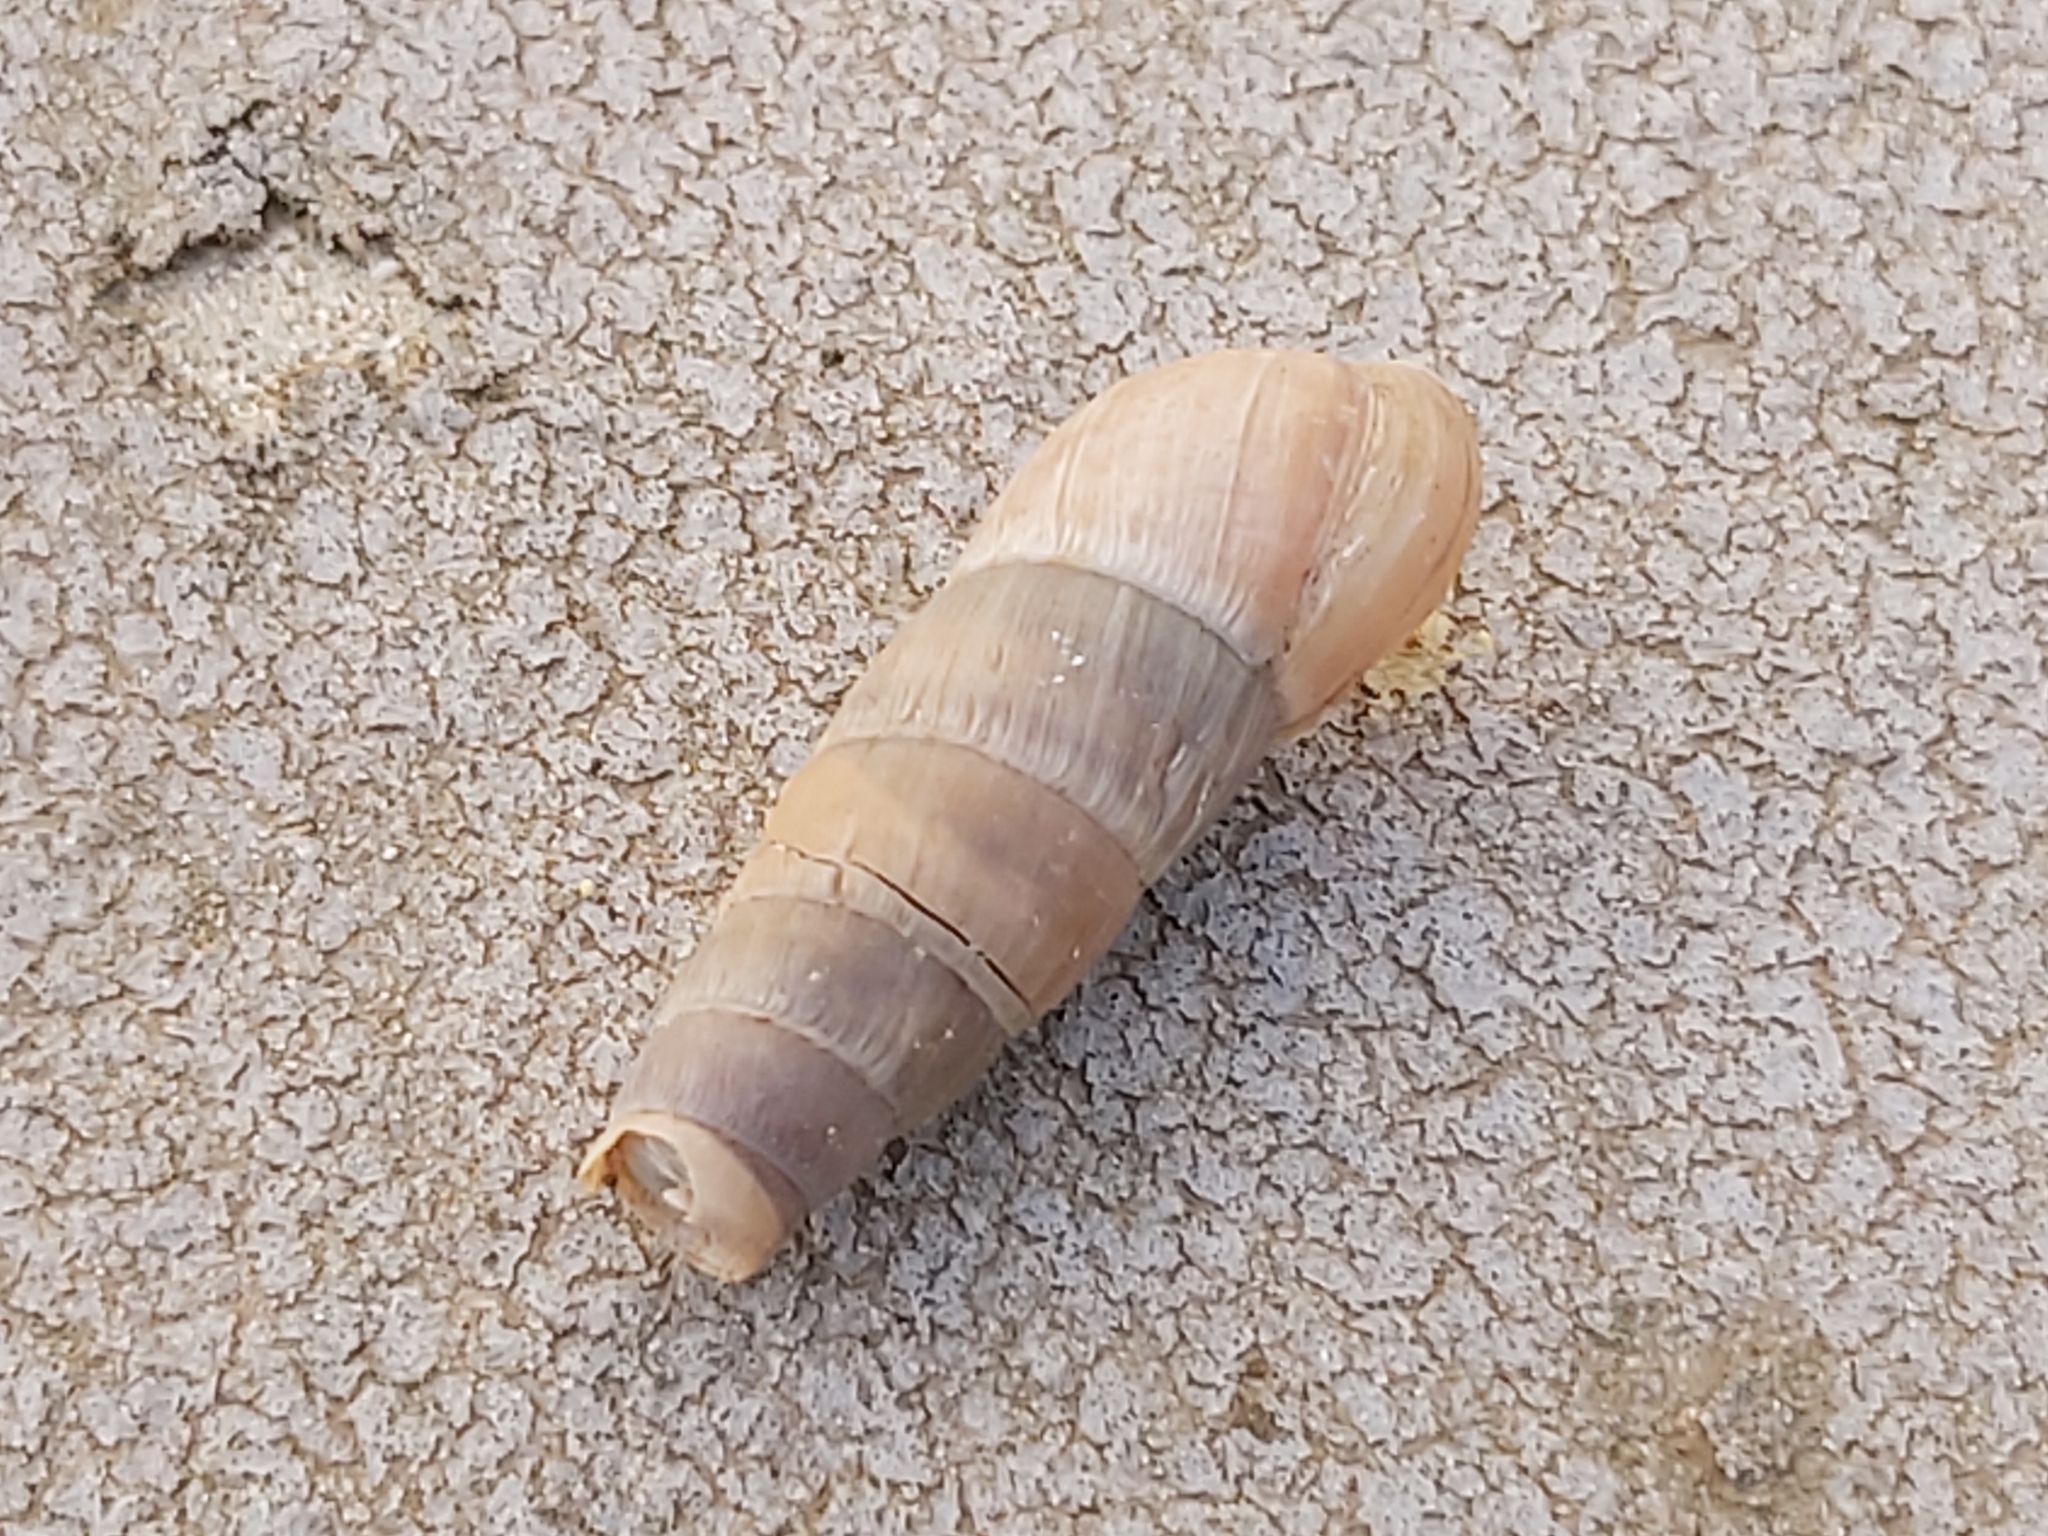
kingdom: Animalia
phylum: Mollusca
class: Gastropoda
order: Stylommatophora
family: Achatinidae
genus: Rumina
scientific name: Rumina decollata
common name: Decollate snail
